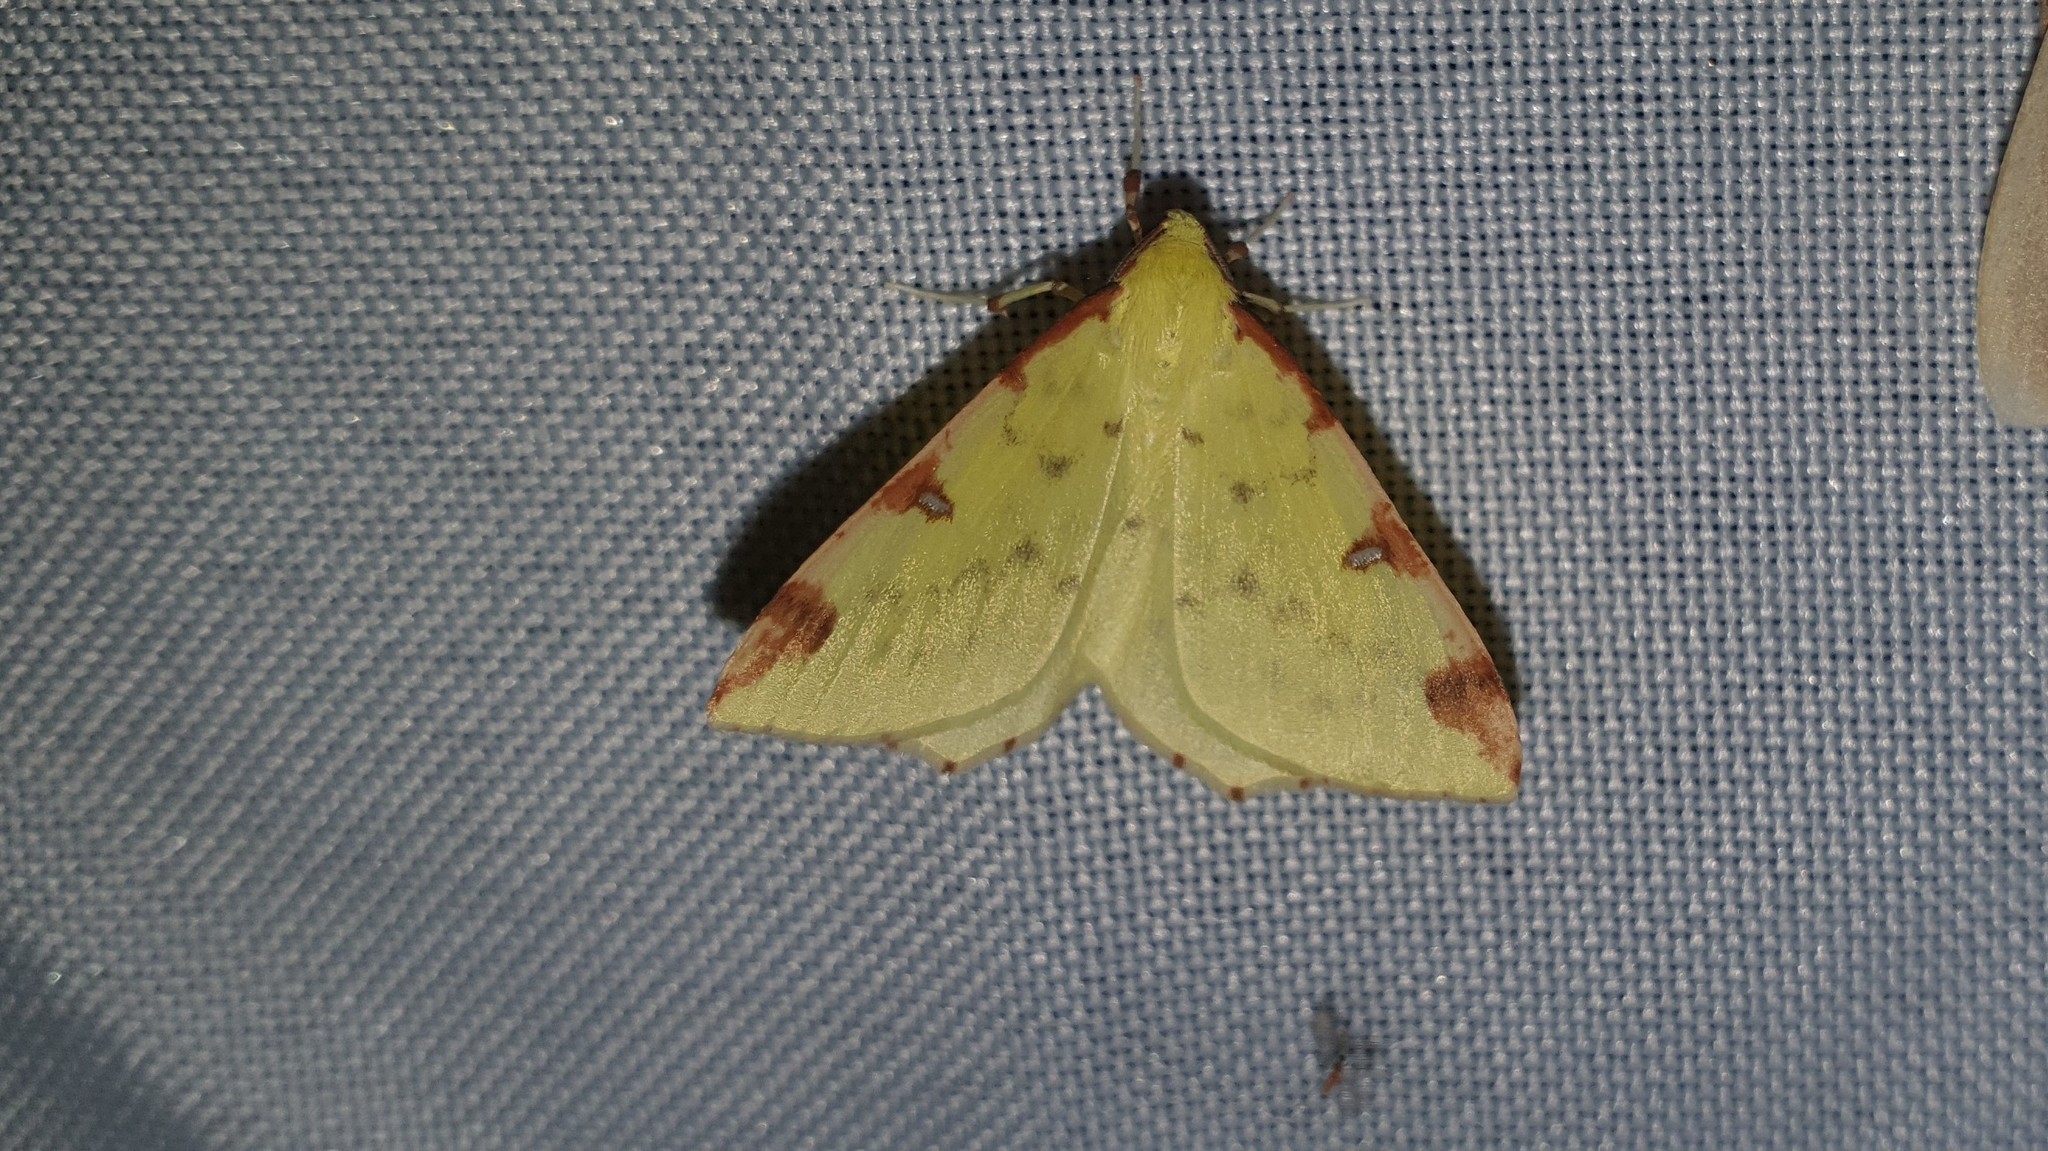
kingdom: Animalia
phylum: Arthropoda
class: Insecta
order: Lepidoptera
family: Geometridae
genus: Opisthograptis
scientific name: Opisthograptis luteolata
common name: Brimstone moth
